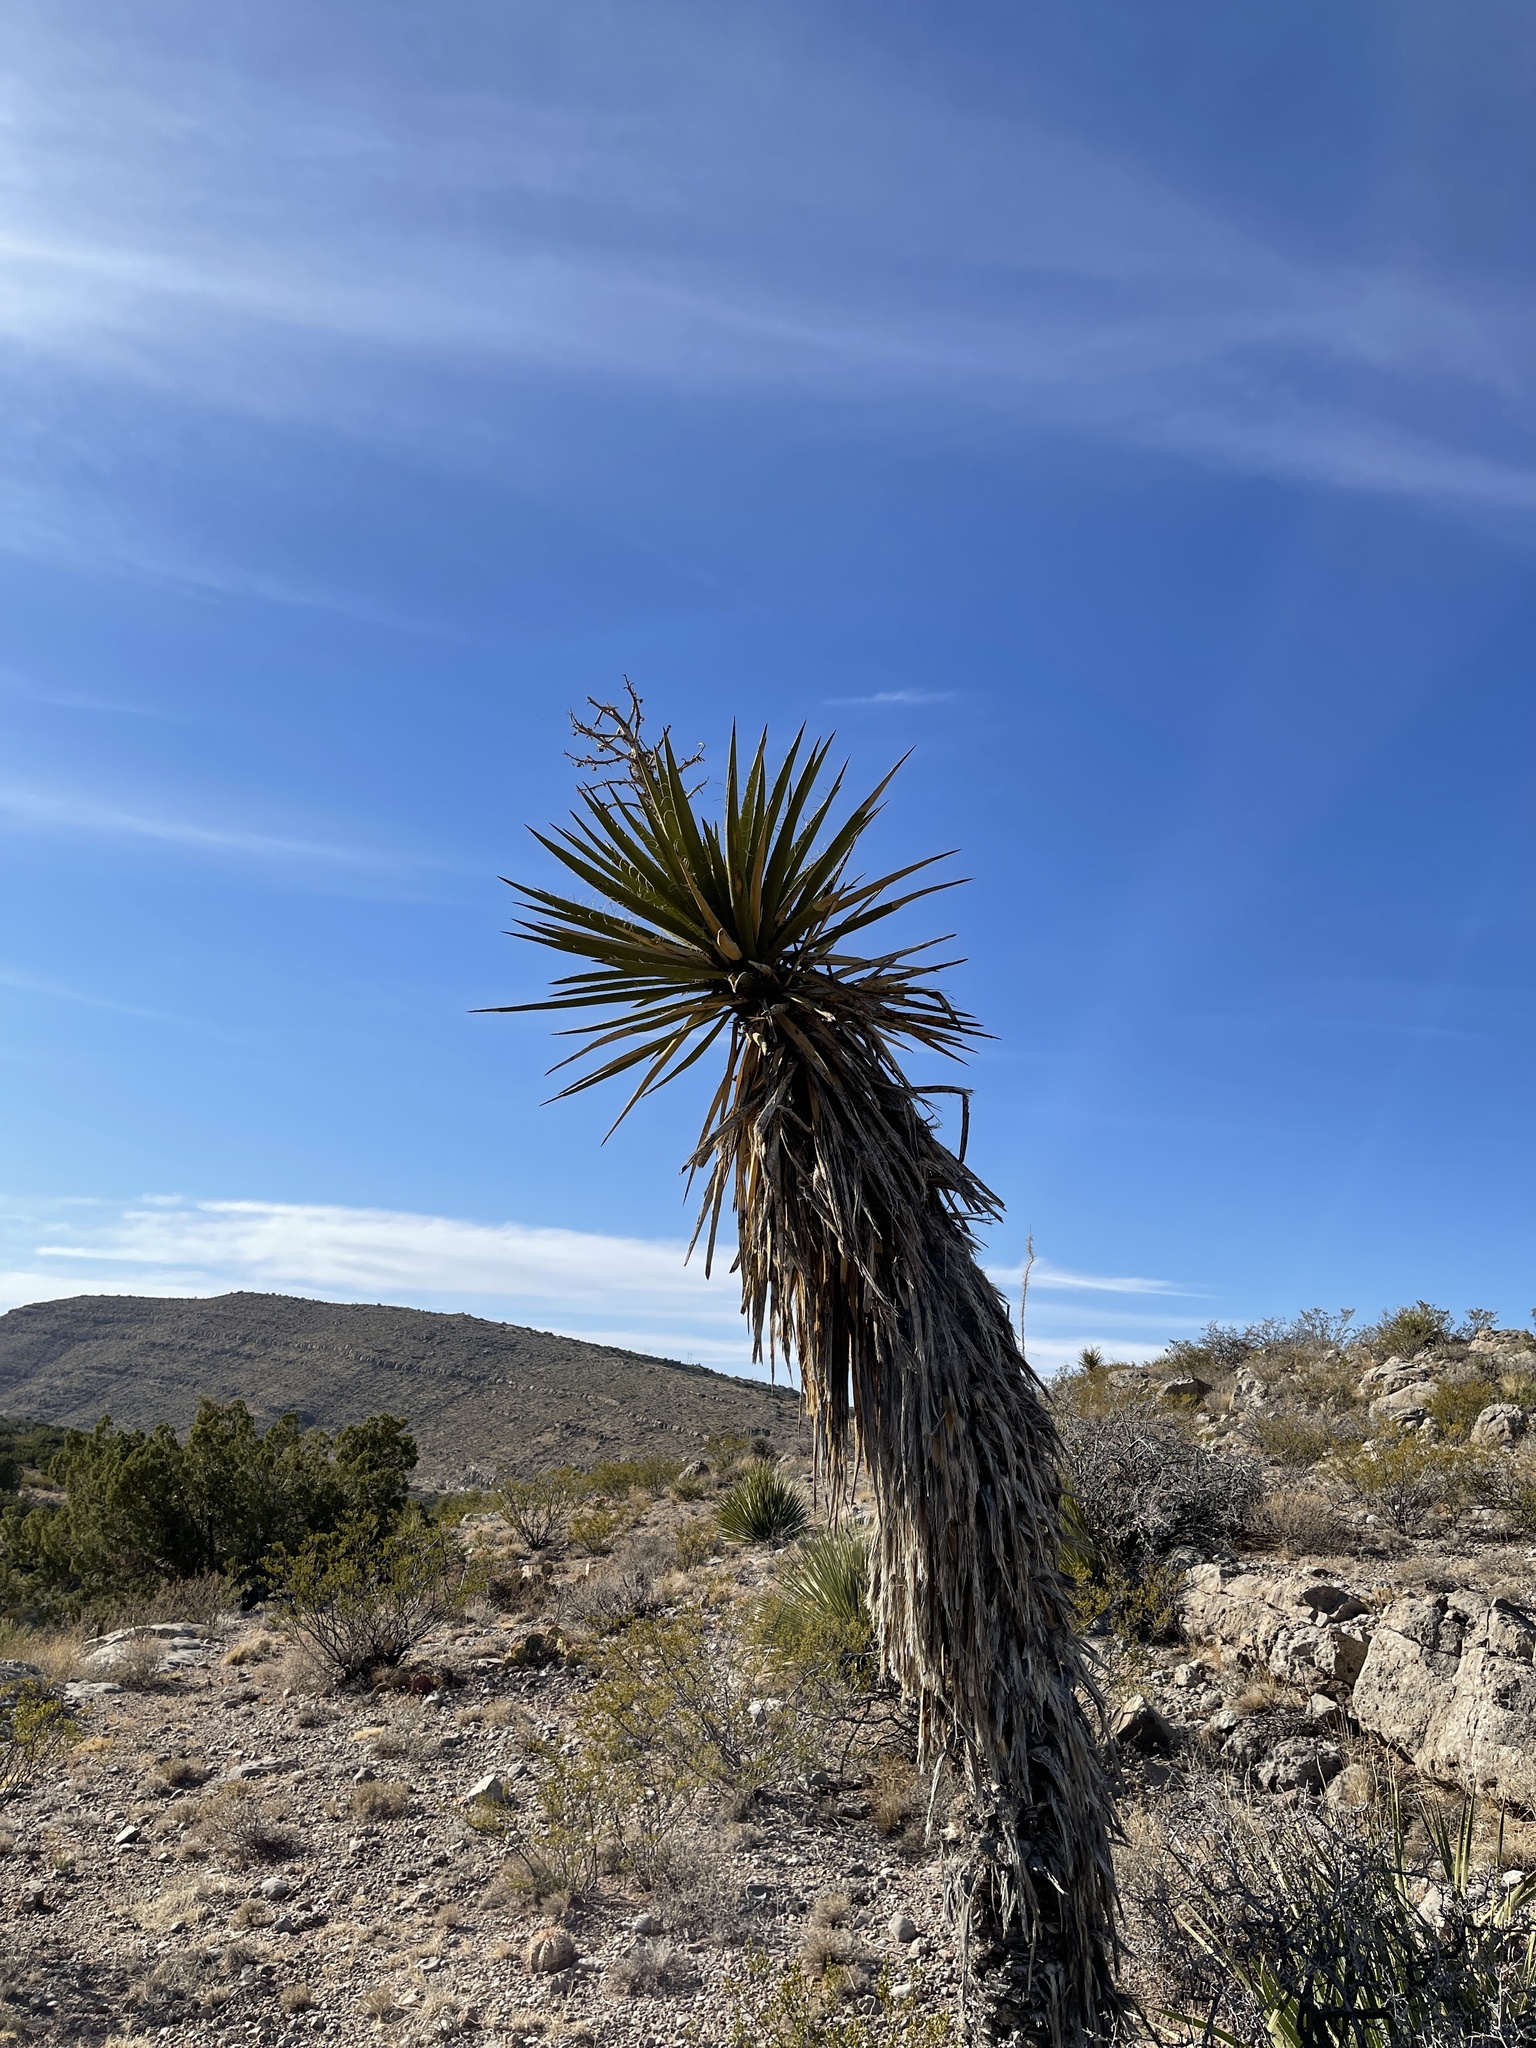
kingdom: Plantae
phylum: Tracheophyta
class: Liliopsida
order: Asparagales
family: Asparagaceae
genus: Yucca
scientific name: Yucca treculiana
